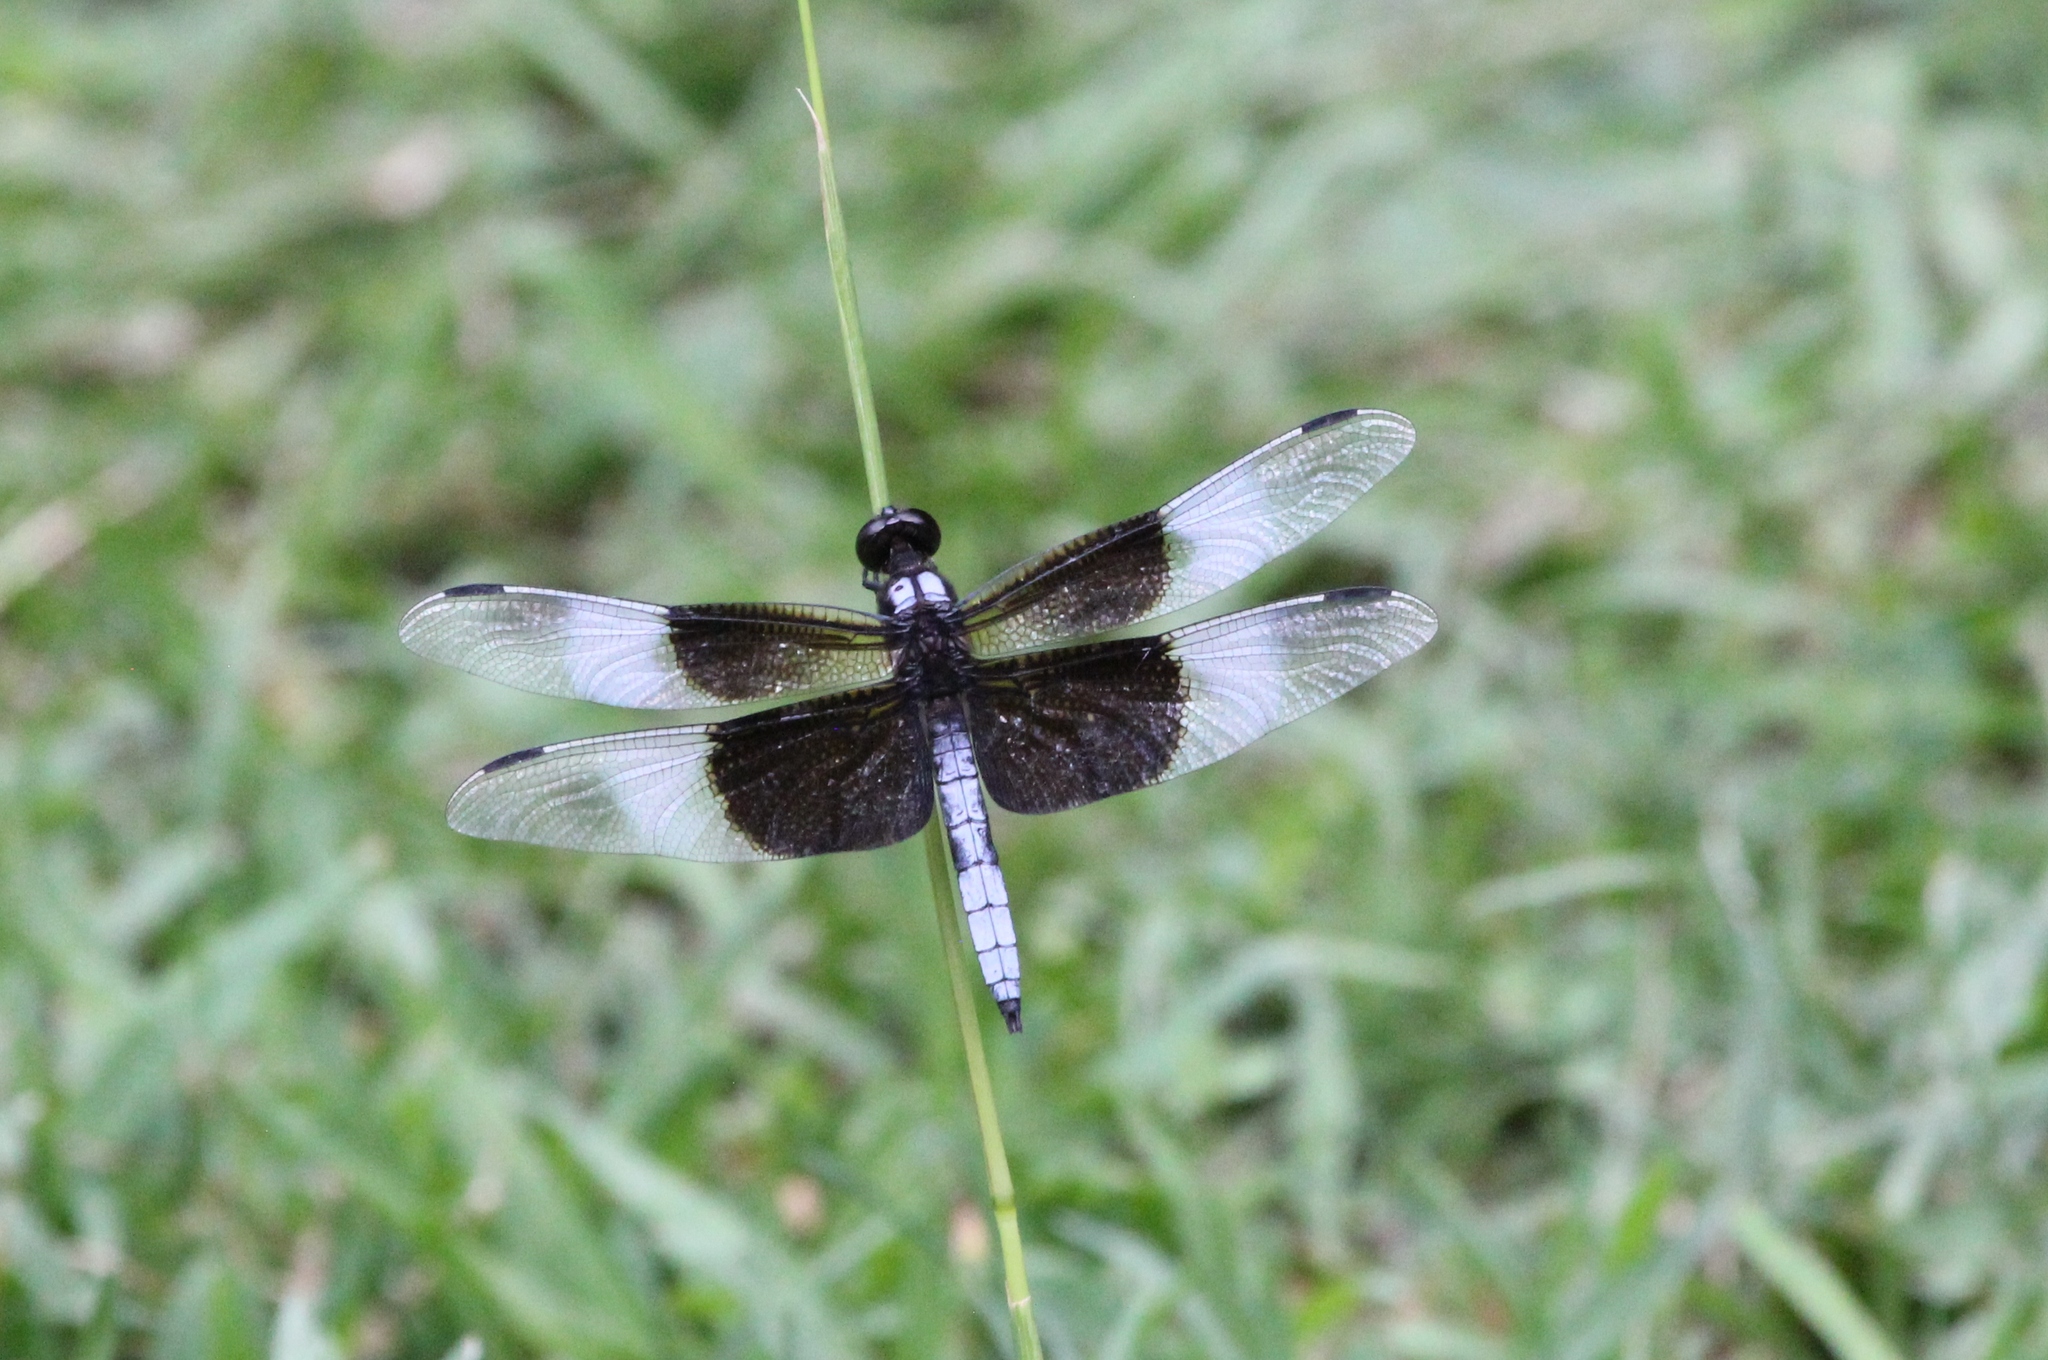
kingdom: Animalia
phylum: Arthropoda
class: Insecta
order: Odonata
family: Libellulidae
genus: Libellula
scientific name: Libellula luctuosa
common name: Widow skimmer
